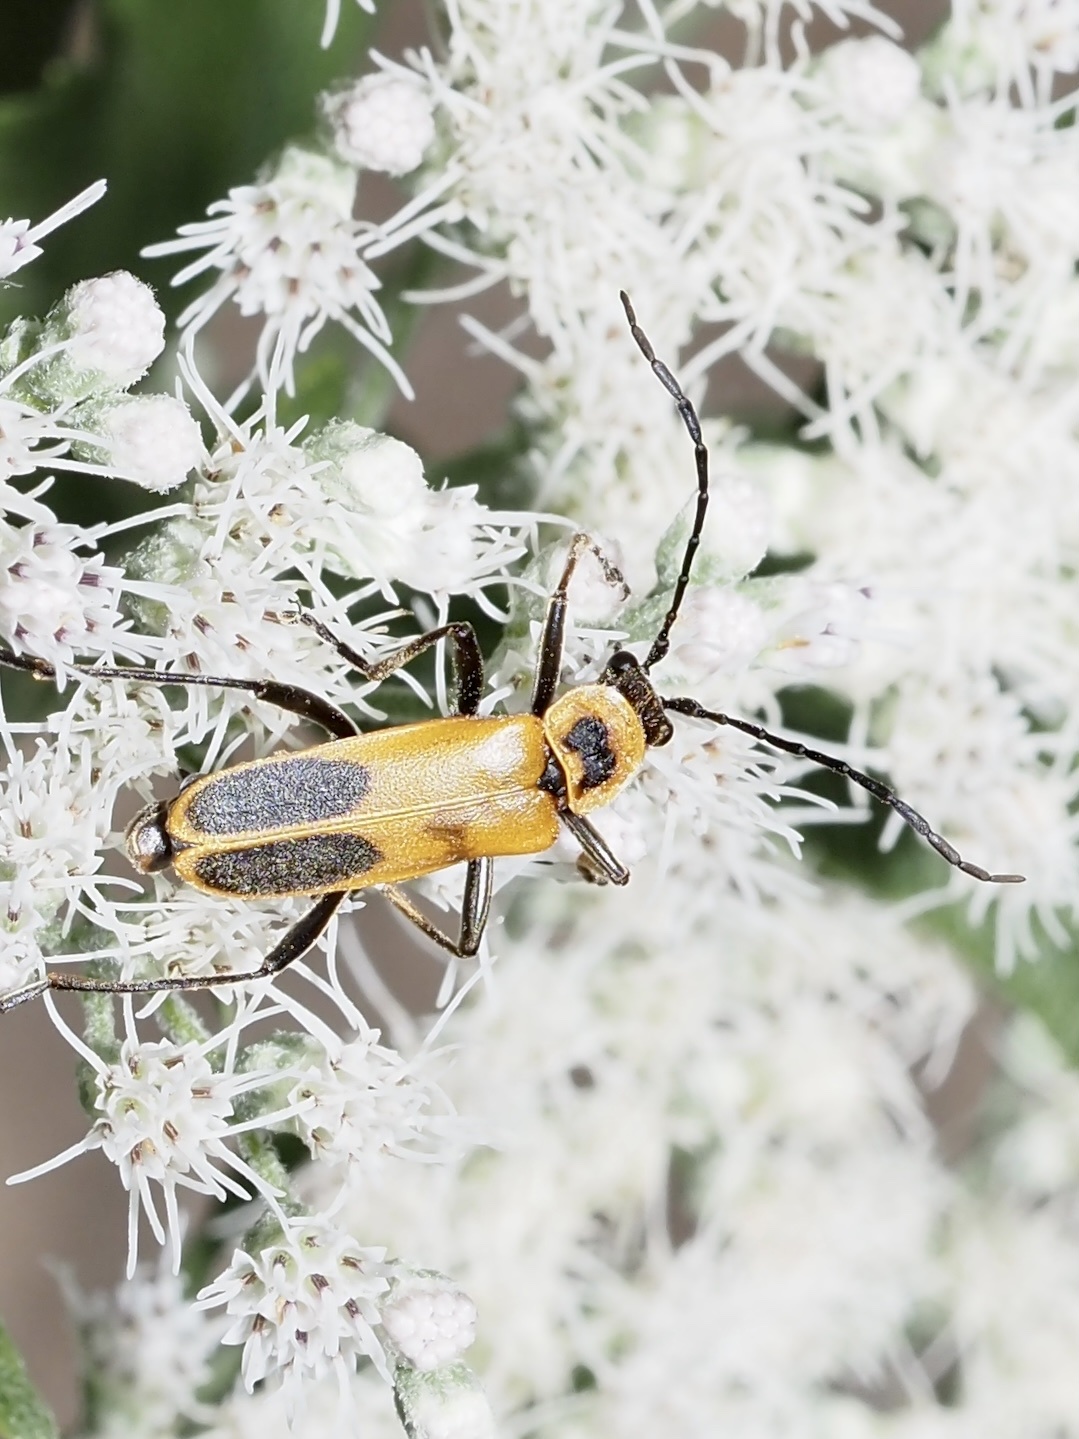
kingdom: Animalia
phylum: Arthropoda
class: Insecta
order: Coleoptera
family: Cantharidae
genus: Chauliognathus
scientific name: Chauliognathus pensylvanicus
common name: Goldenrod soldier beetle
